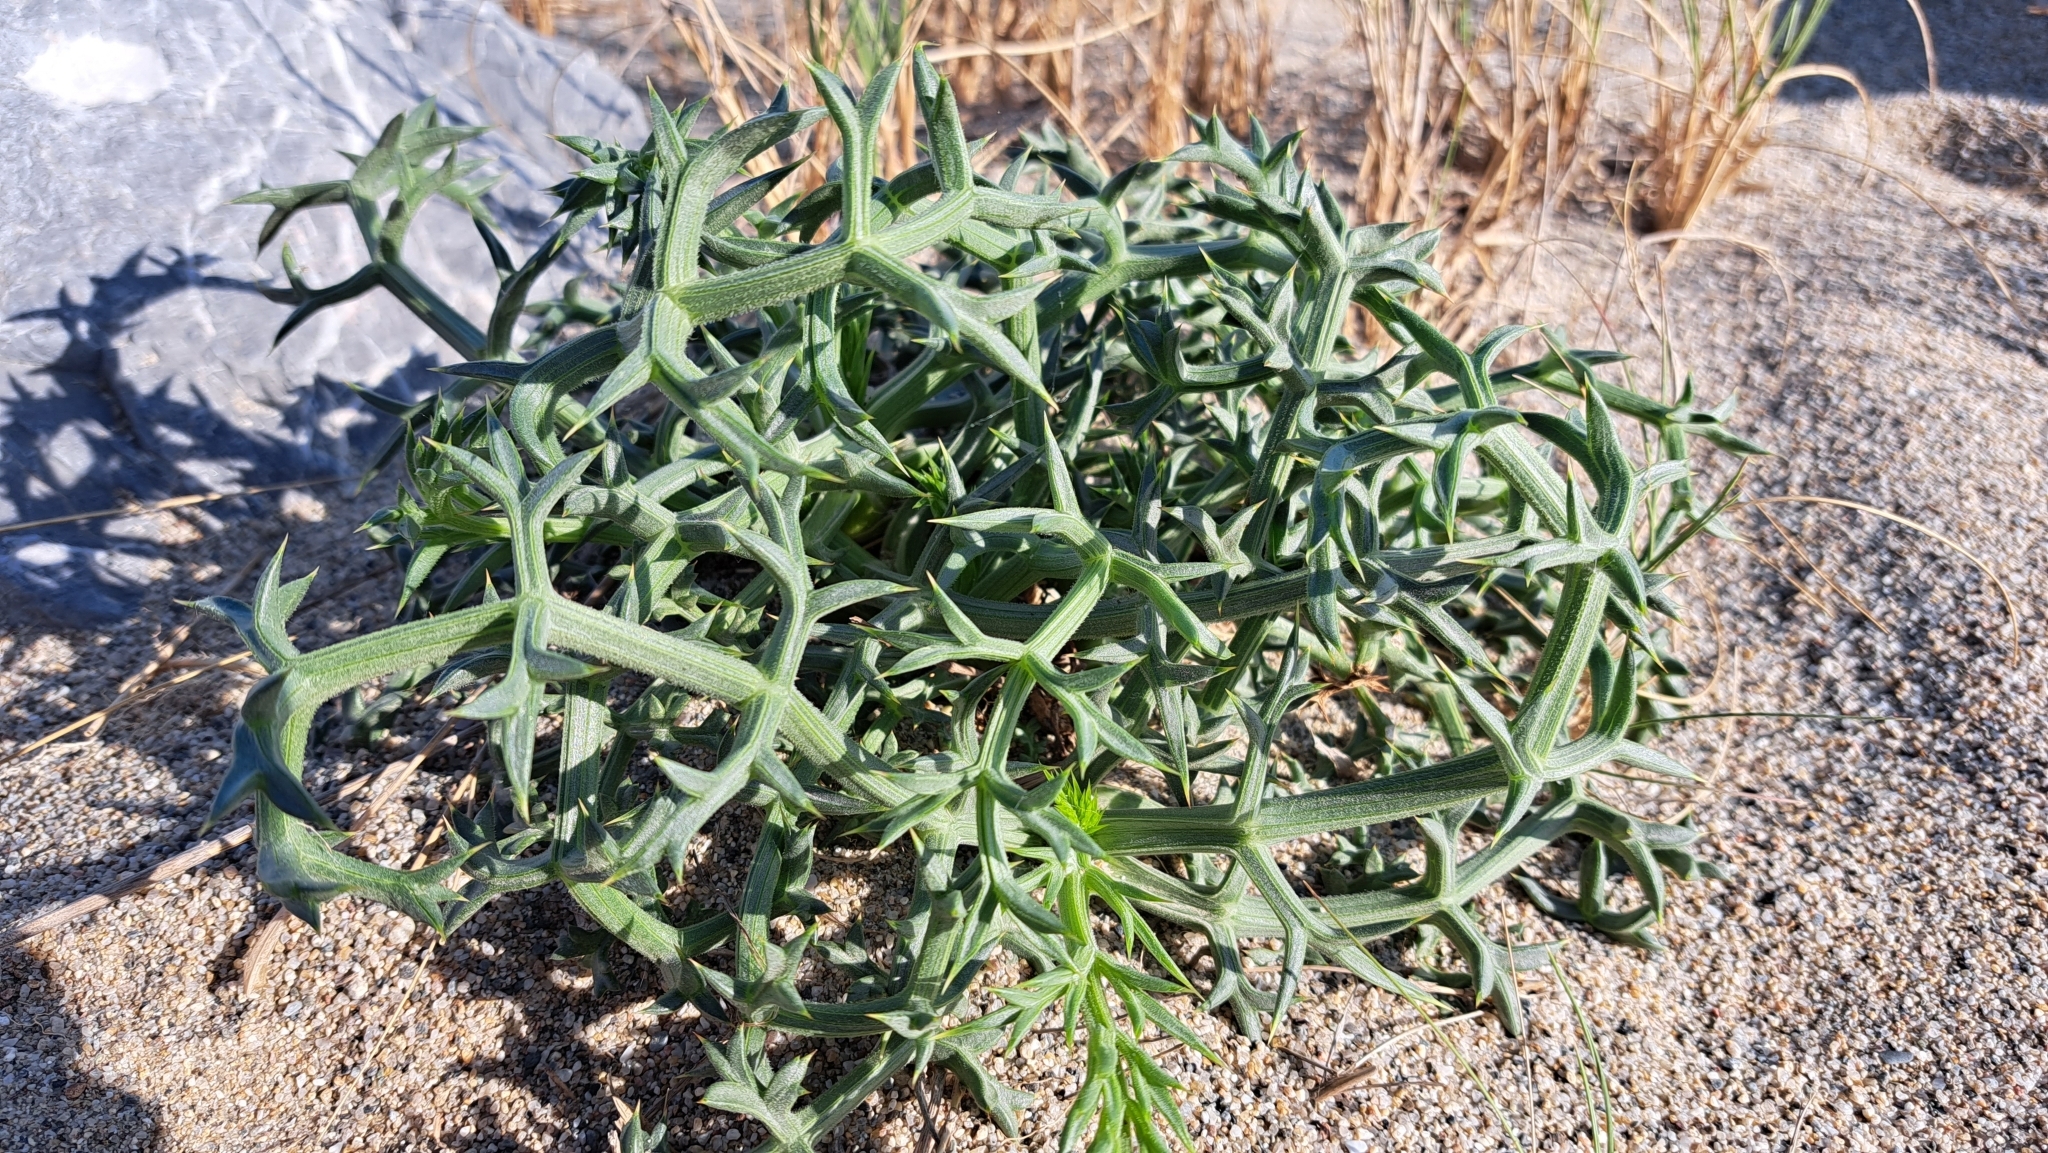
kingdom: Plantae
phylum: Tracheophyta
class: Magnoliopsida
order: Apiales
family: Apiaceae
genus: Echinophora
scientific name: Echinophora spinosa
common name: Prickly samphire
